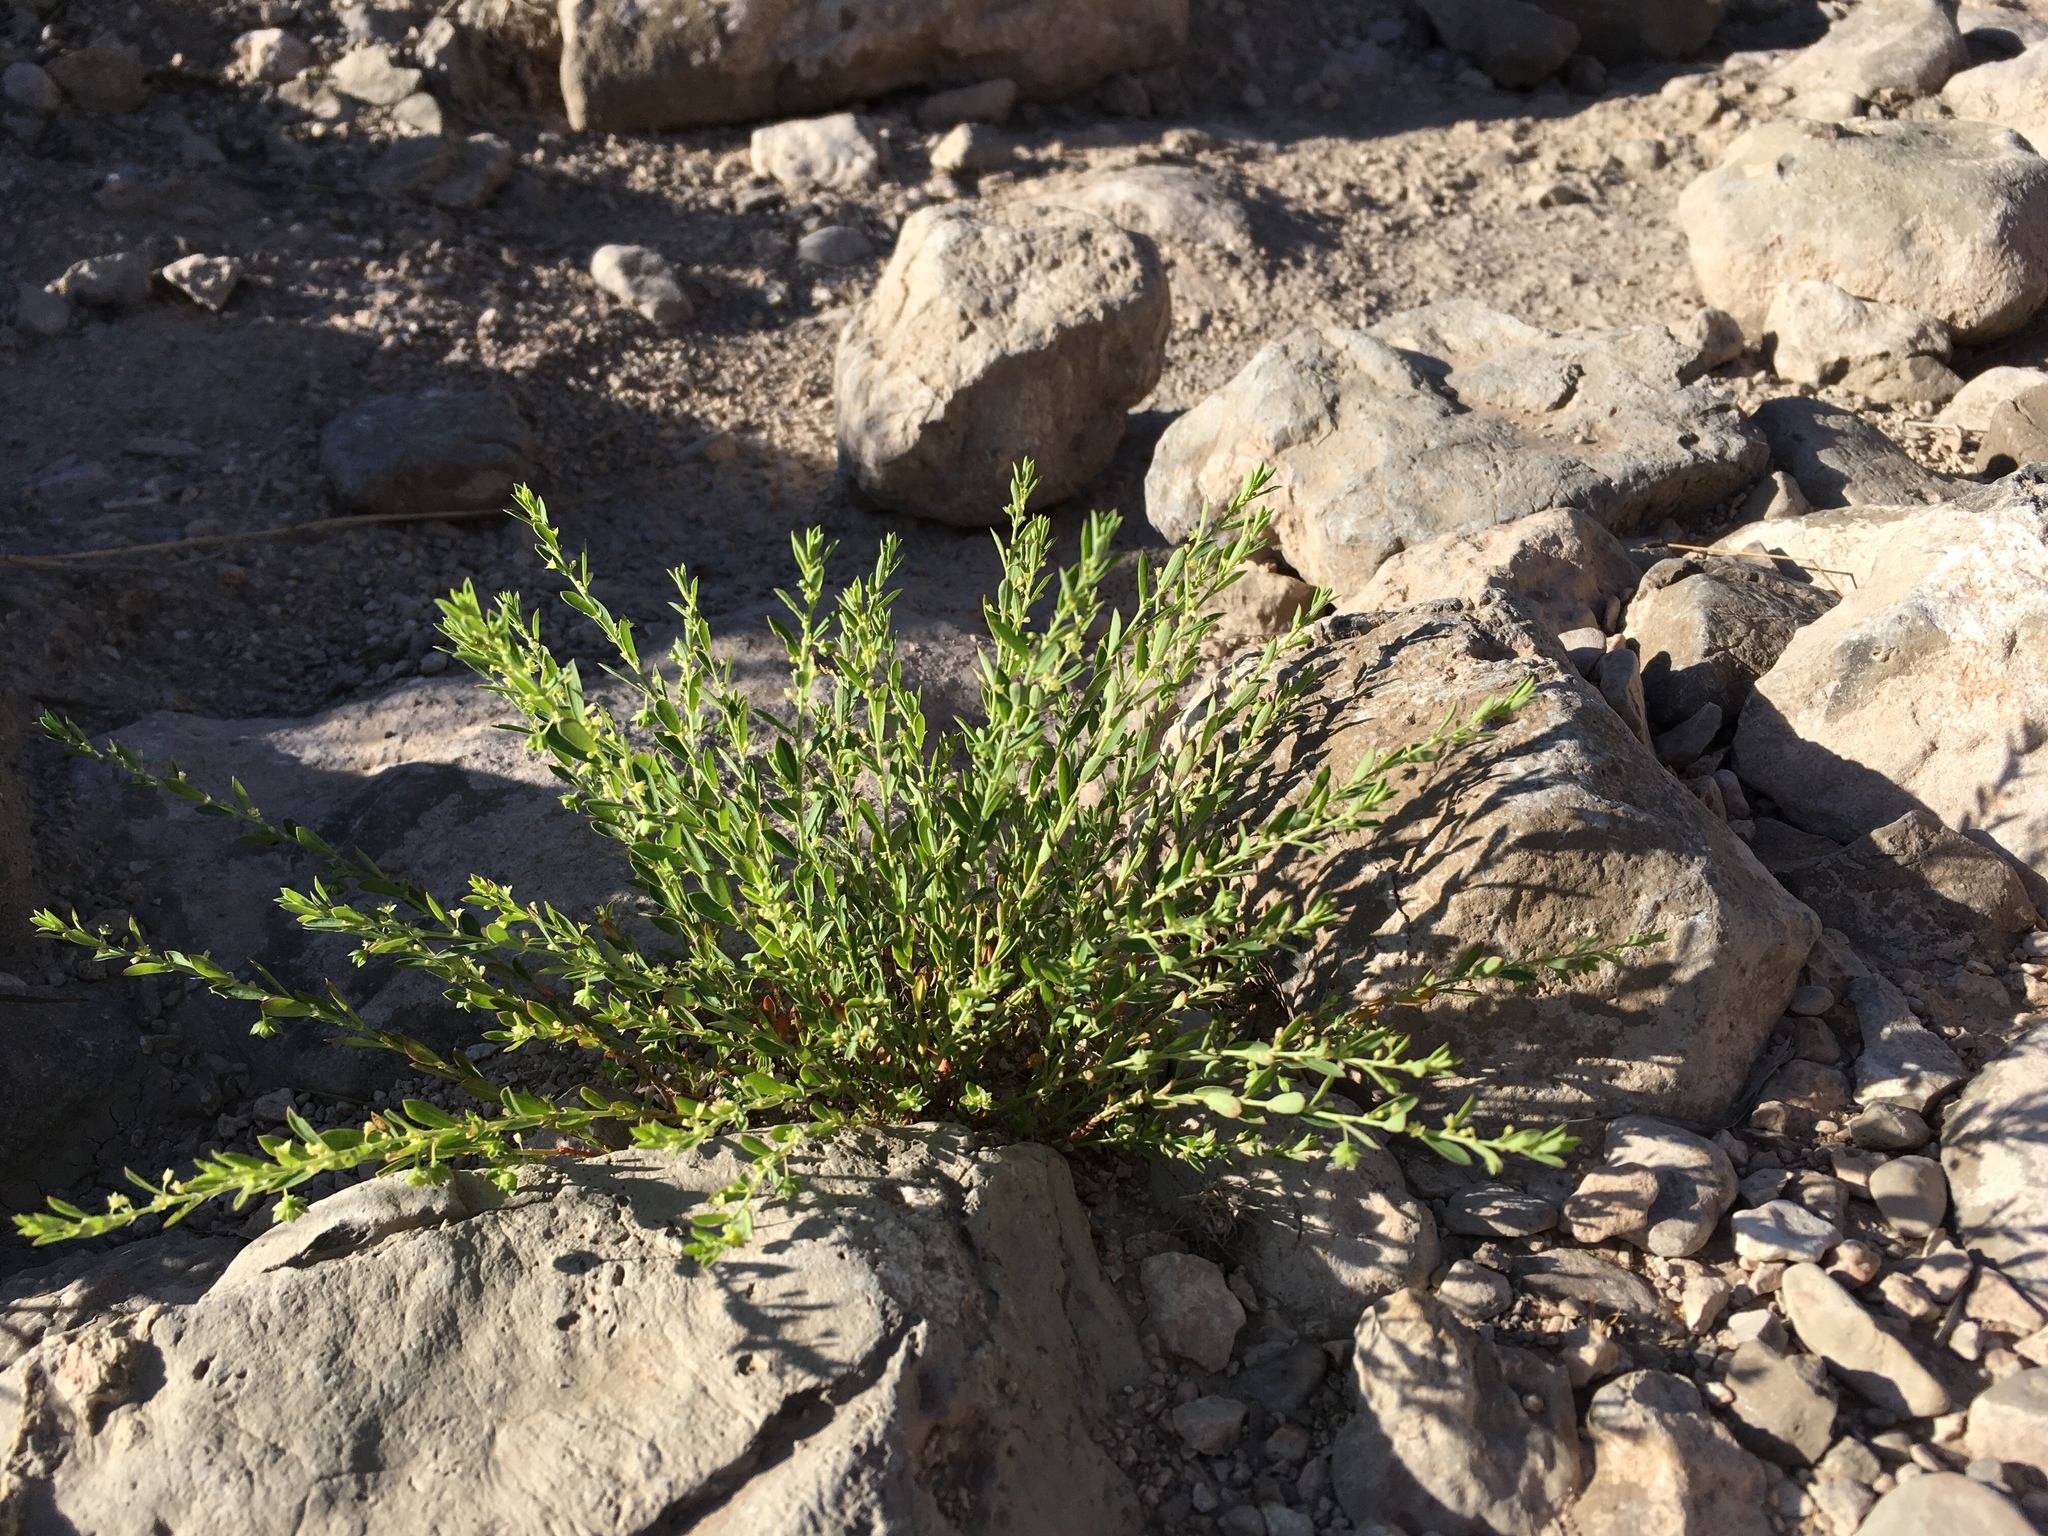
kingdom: Plantae
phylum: Tracheophyta
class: Magnoliopsida
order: Malpighiales
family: Phyllanthaceae
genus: Phyllanthus
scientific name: Phyllanthus polygonoides
